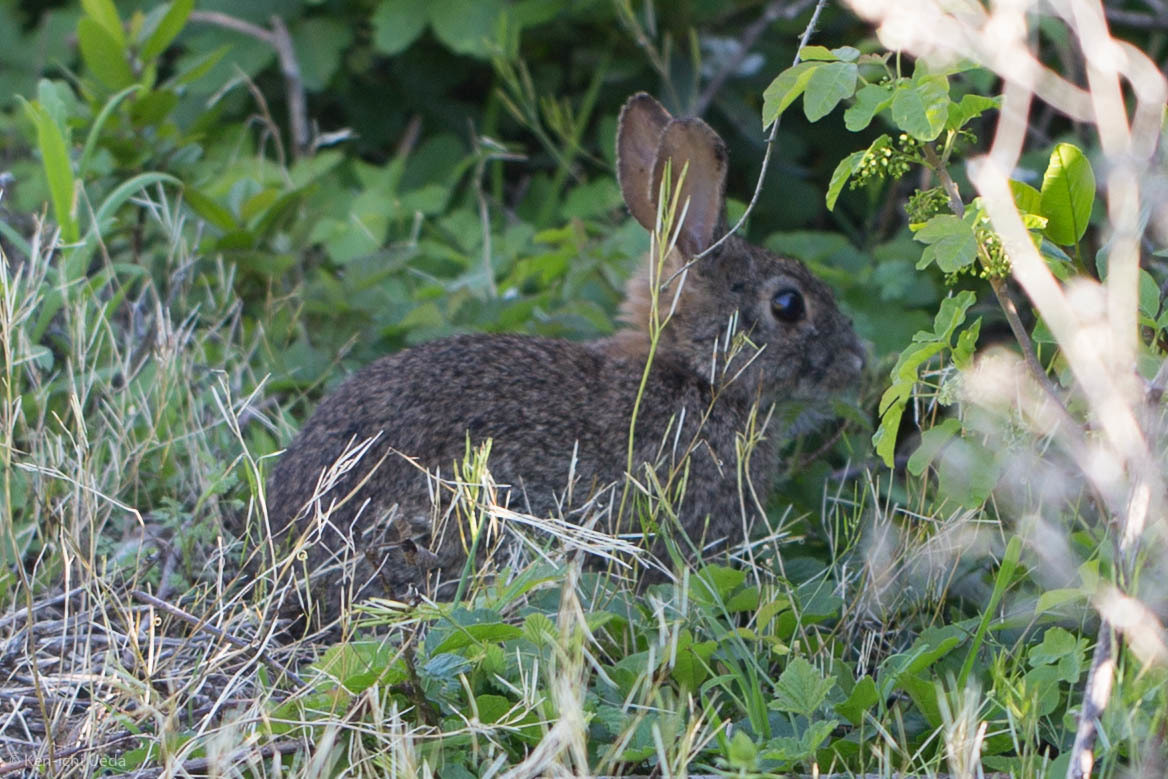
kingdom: Animalia
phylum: Chordata
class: Mammalia
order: Lagomorpha
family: Leporidae
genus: Sylvilagus
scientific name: Sylvilagus bachmani
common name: Brush rabbit
